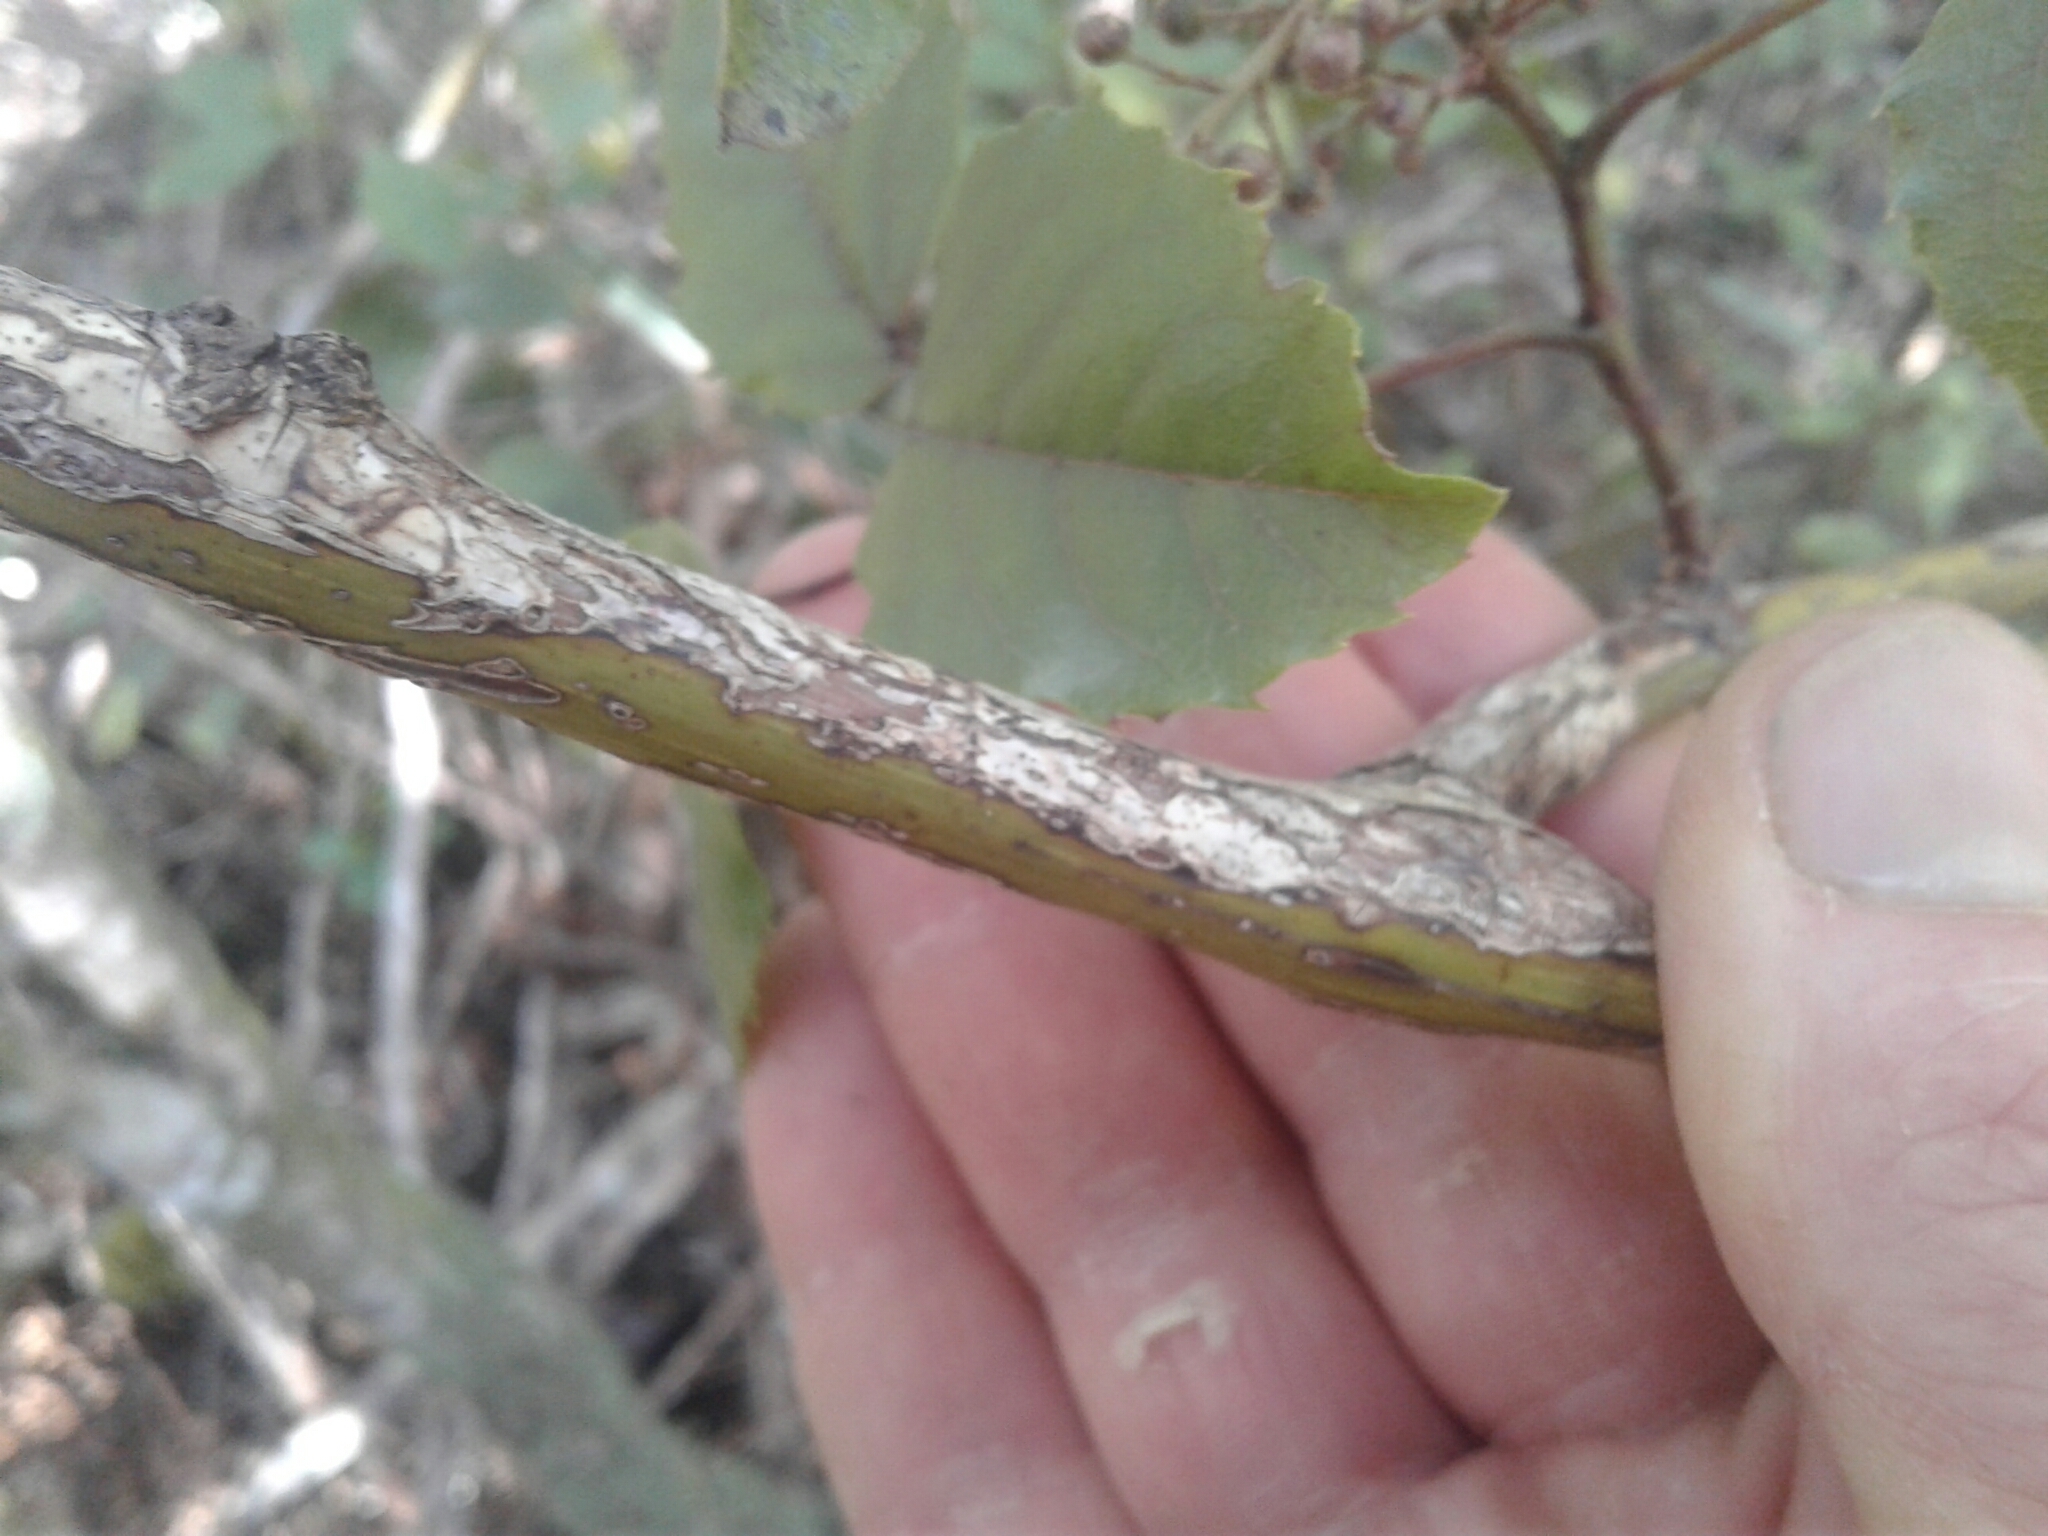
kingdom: Plantae
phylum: Tracheophyta
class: Magnoliopsida
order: Rosales
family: Rosaceae
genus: Rubus
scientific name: Rubus australis
